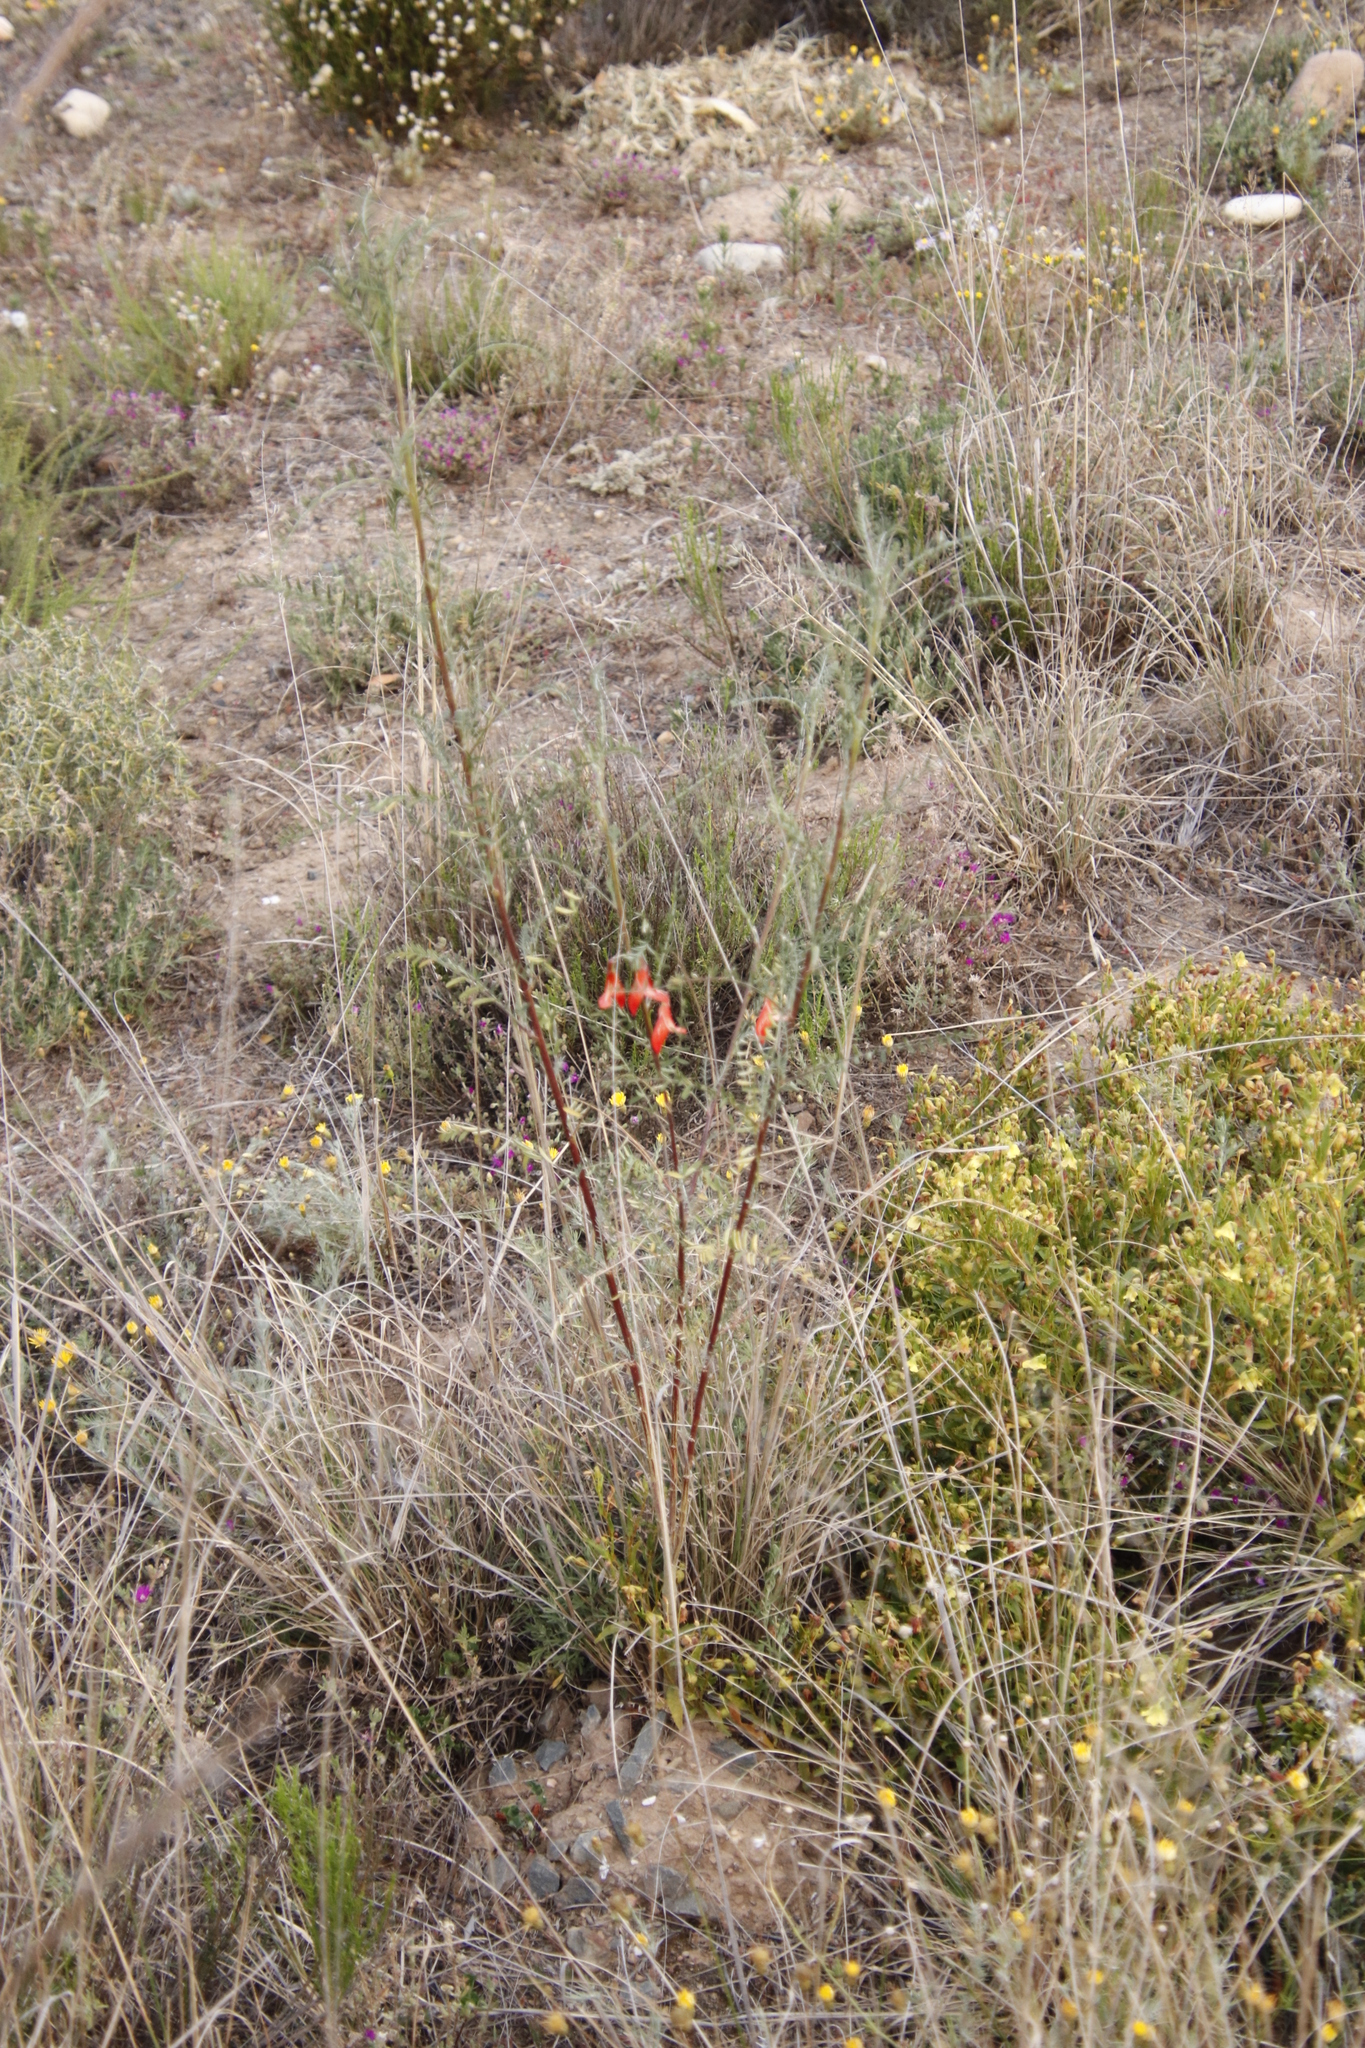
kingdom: Plantae
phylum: Tracheophyta
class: Magnoliopsida
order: Fabales
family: Fabaceae
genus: Lessertia
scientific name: Lessertia frutescens
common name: Balloon-pea
